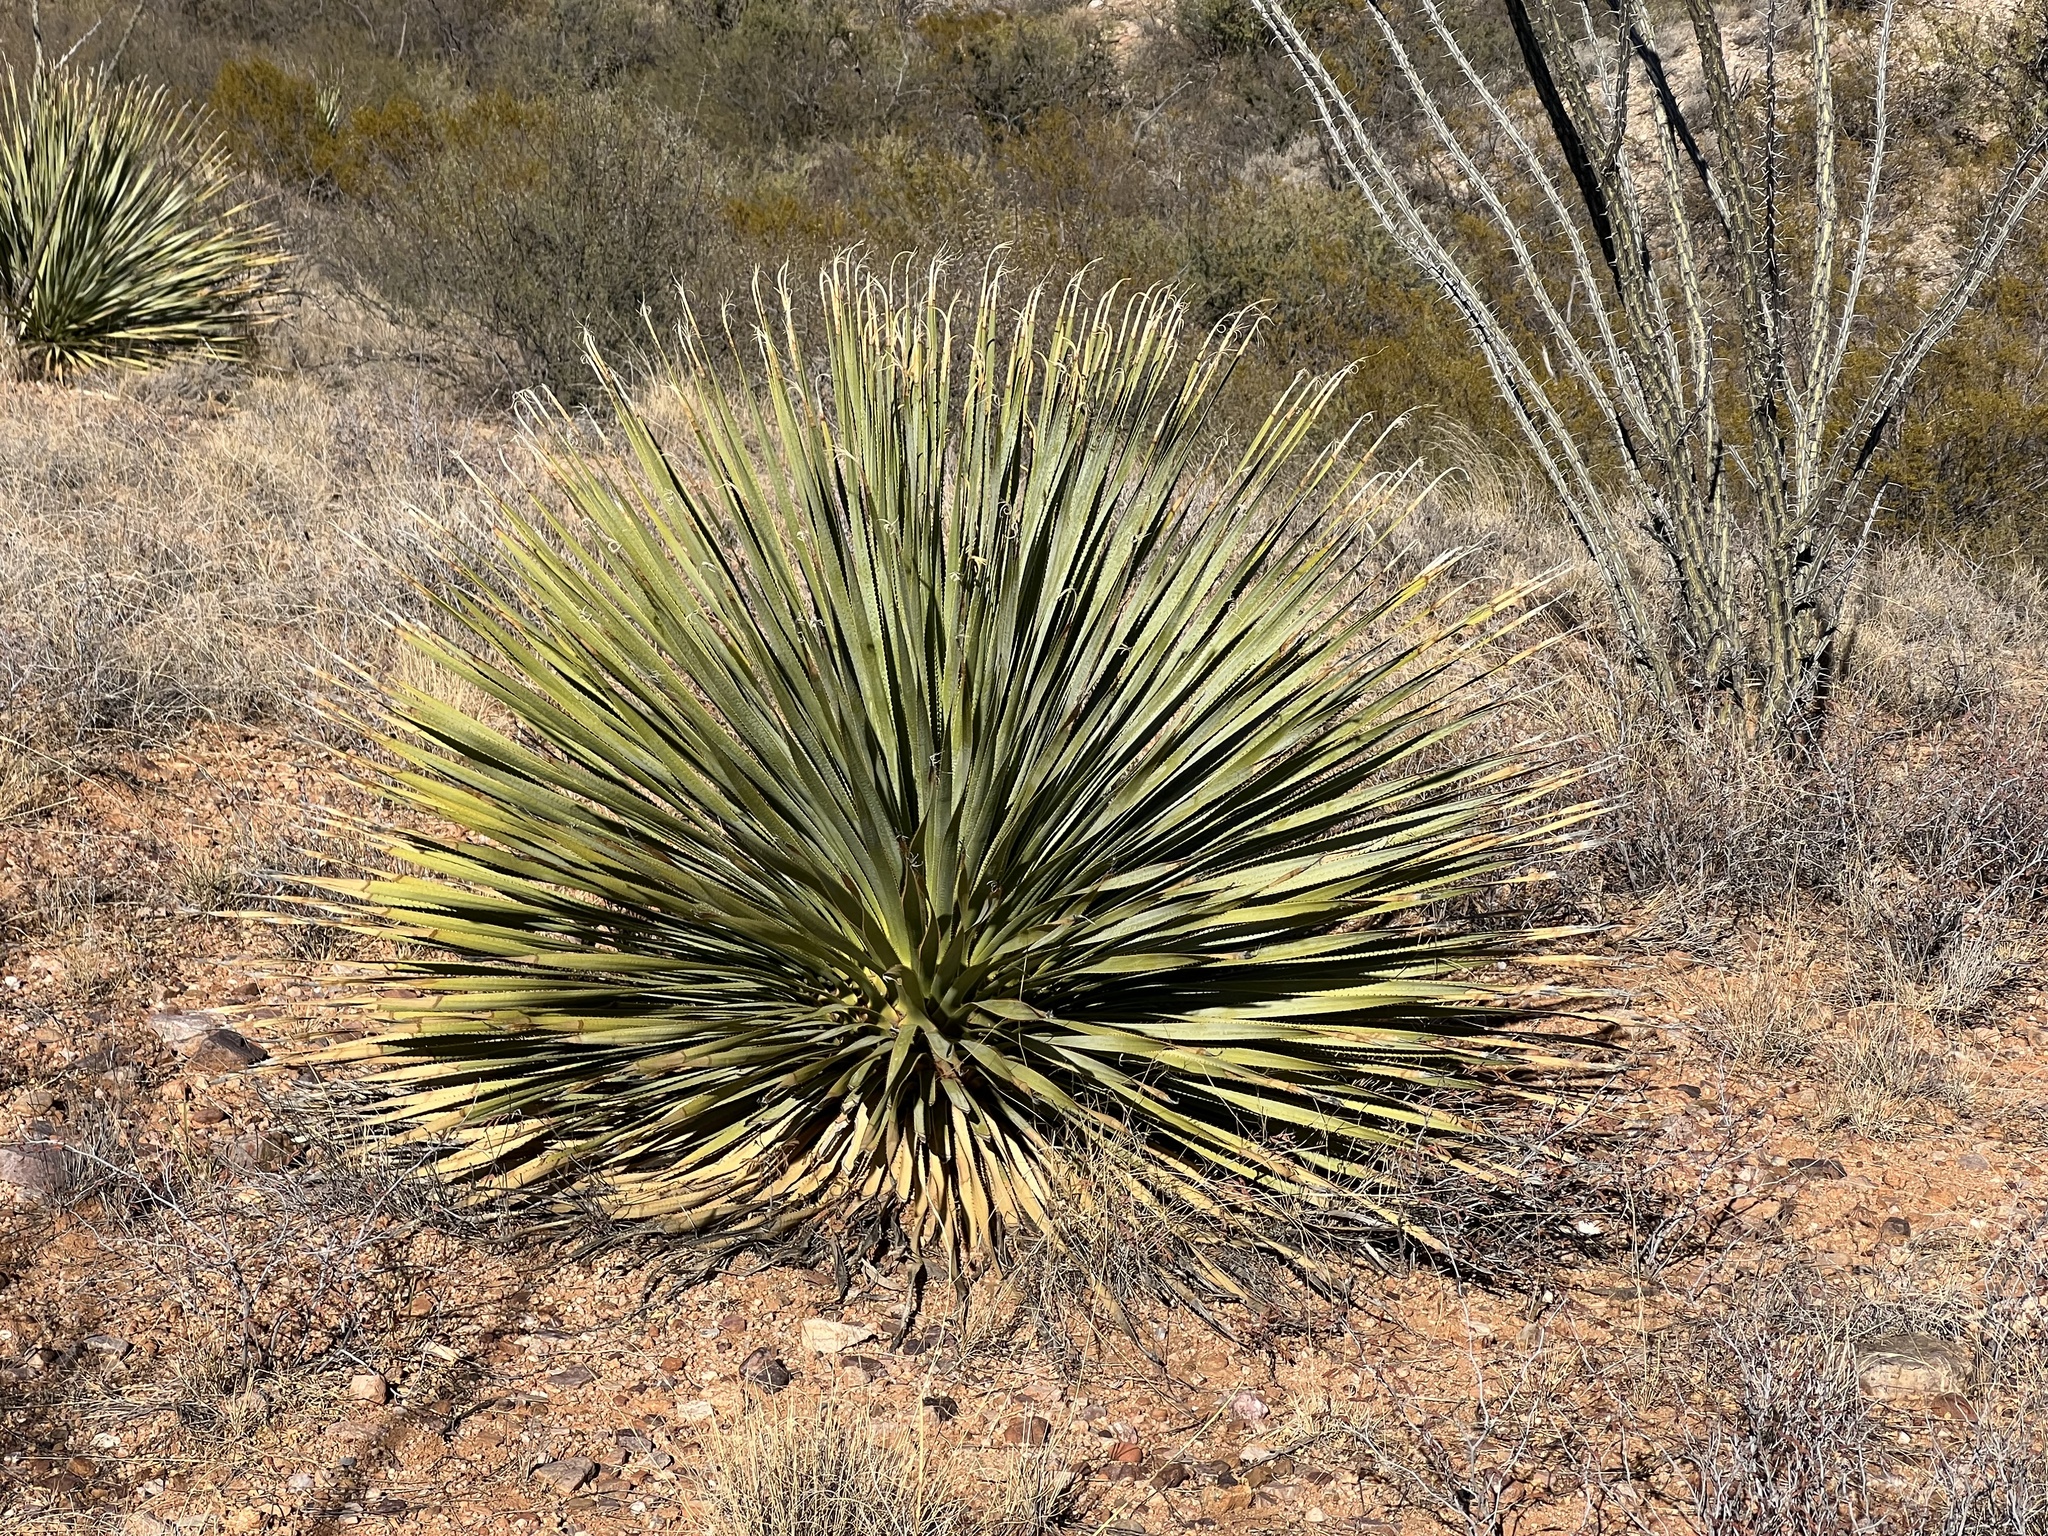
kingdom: Plantae
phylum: Tracheophyta
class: Liliopsida
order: Asparagales
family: Asparagaceae
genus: Dasylirion
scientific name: Dasylirion wheeleri
